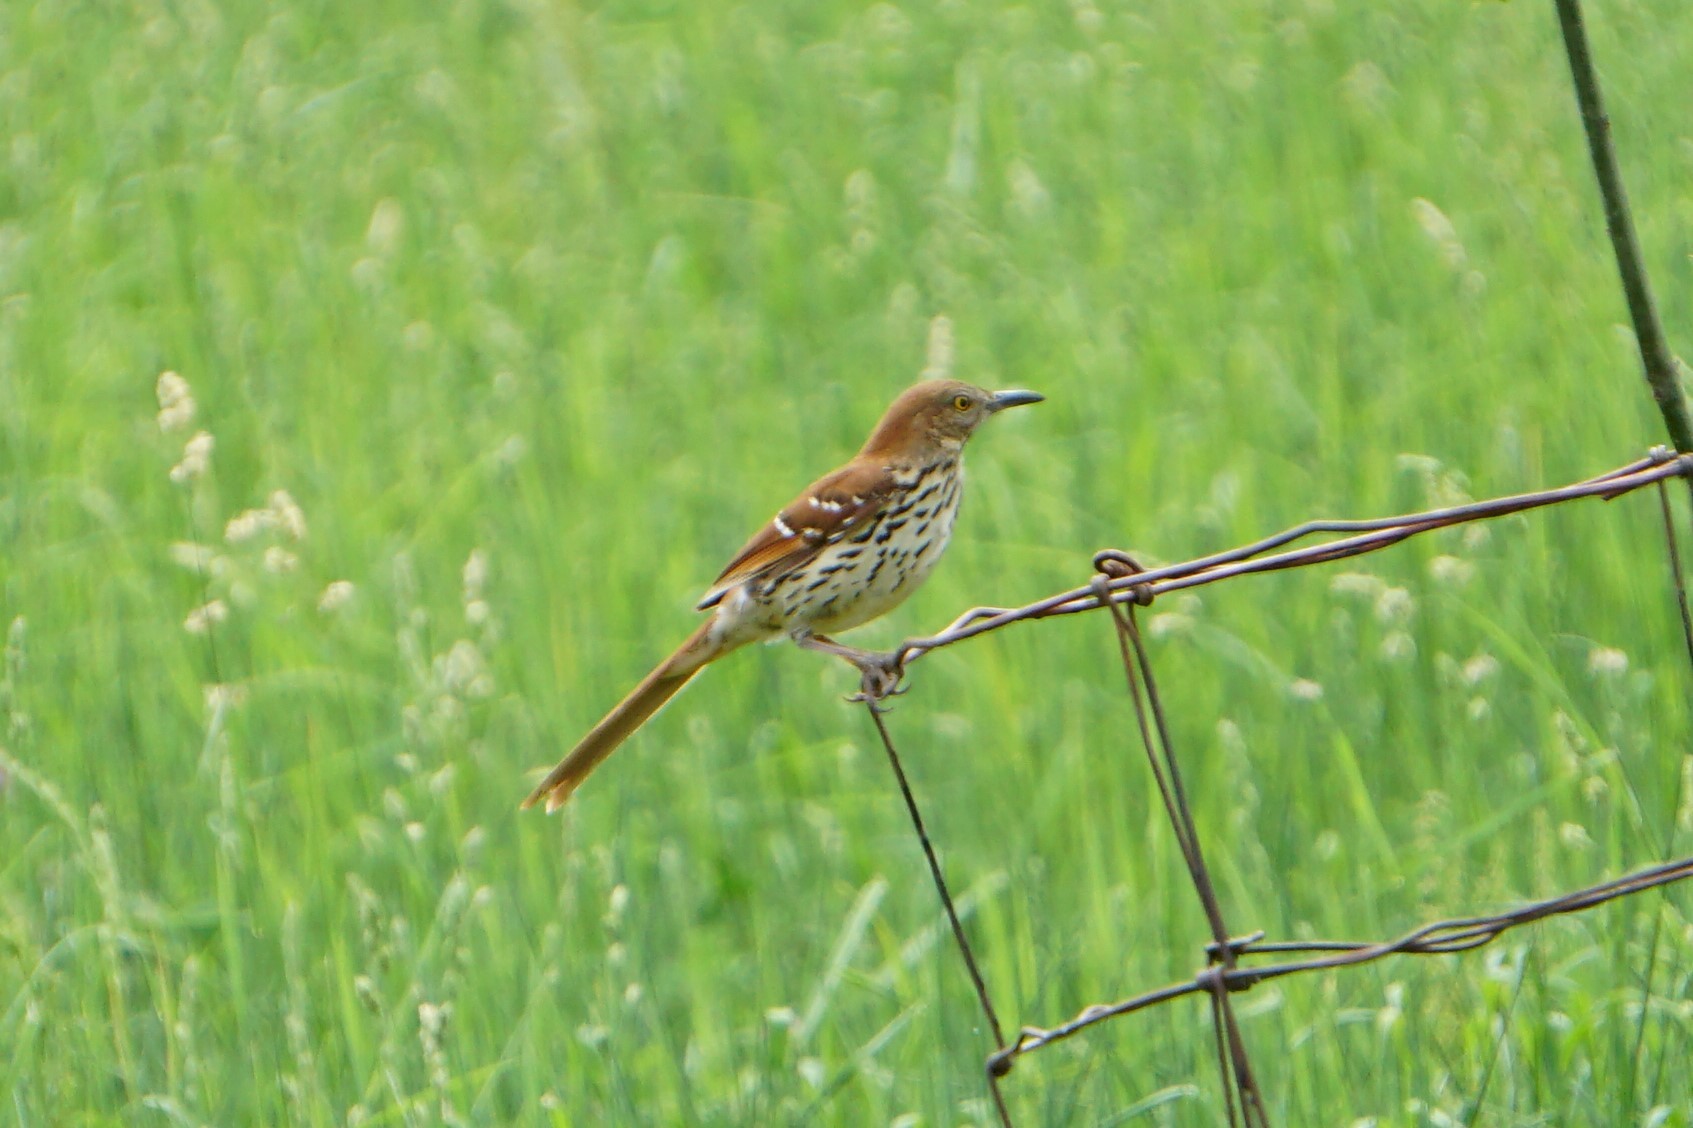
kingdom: Animalia
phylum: Chordata
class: Aves
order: Passeriformes
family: Mimidae
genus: Toxostoma
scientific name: Toxostoma rufum
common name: Brown thrasher
